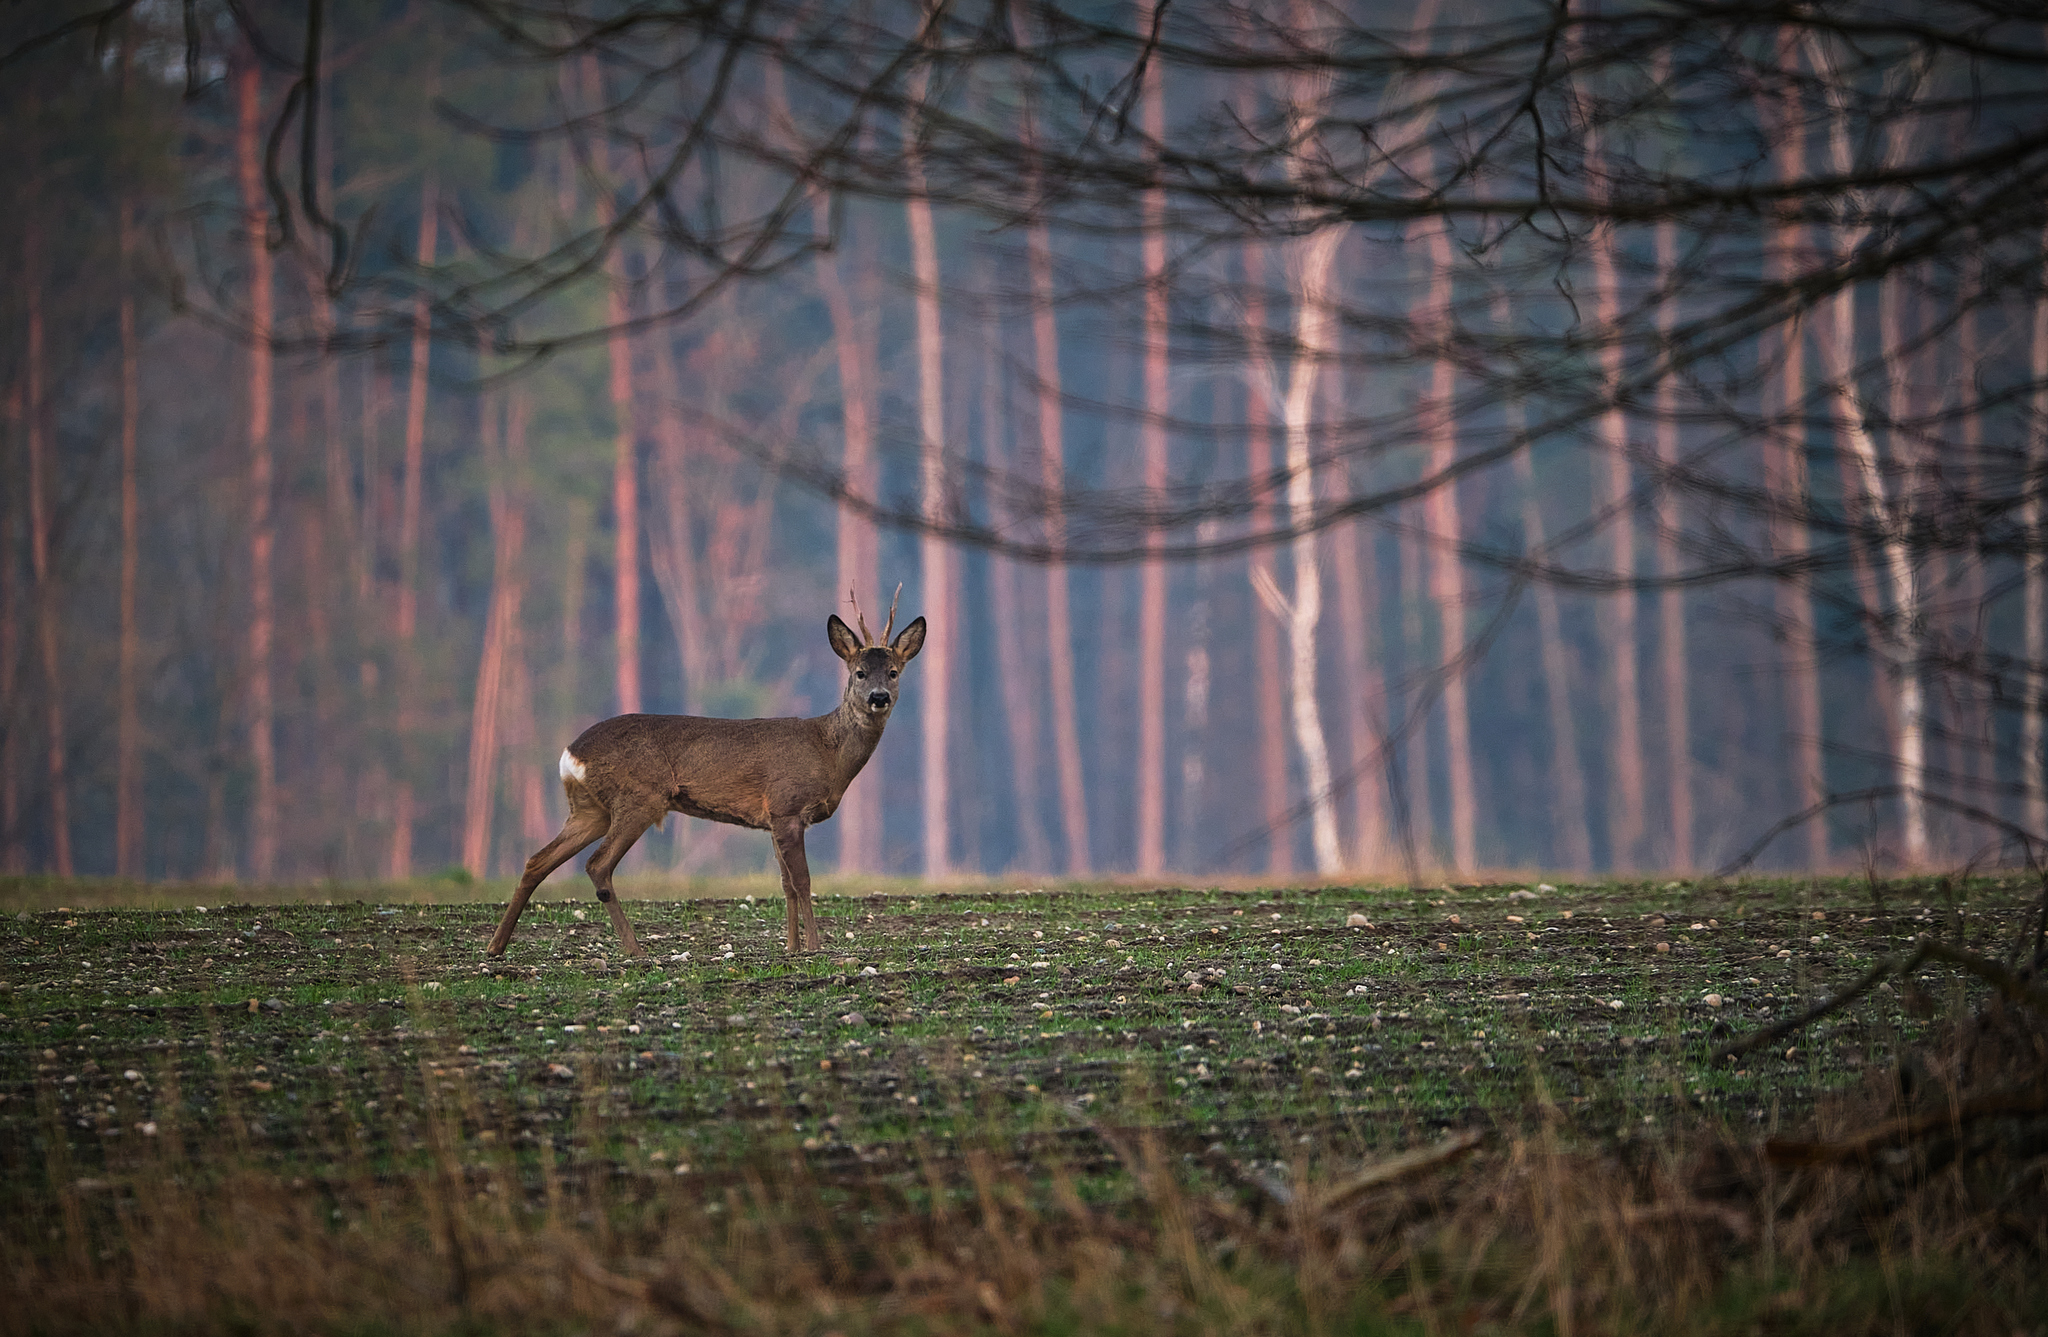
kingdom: Animalia
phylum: Chordata
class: Mammalia
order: Artiodactyla
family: Cervidae
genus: Capreolus
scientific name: Capreolus capreolus
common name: Western roe deer
